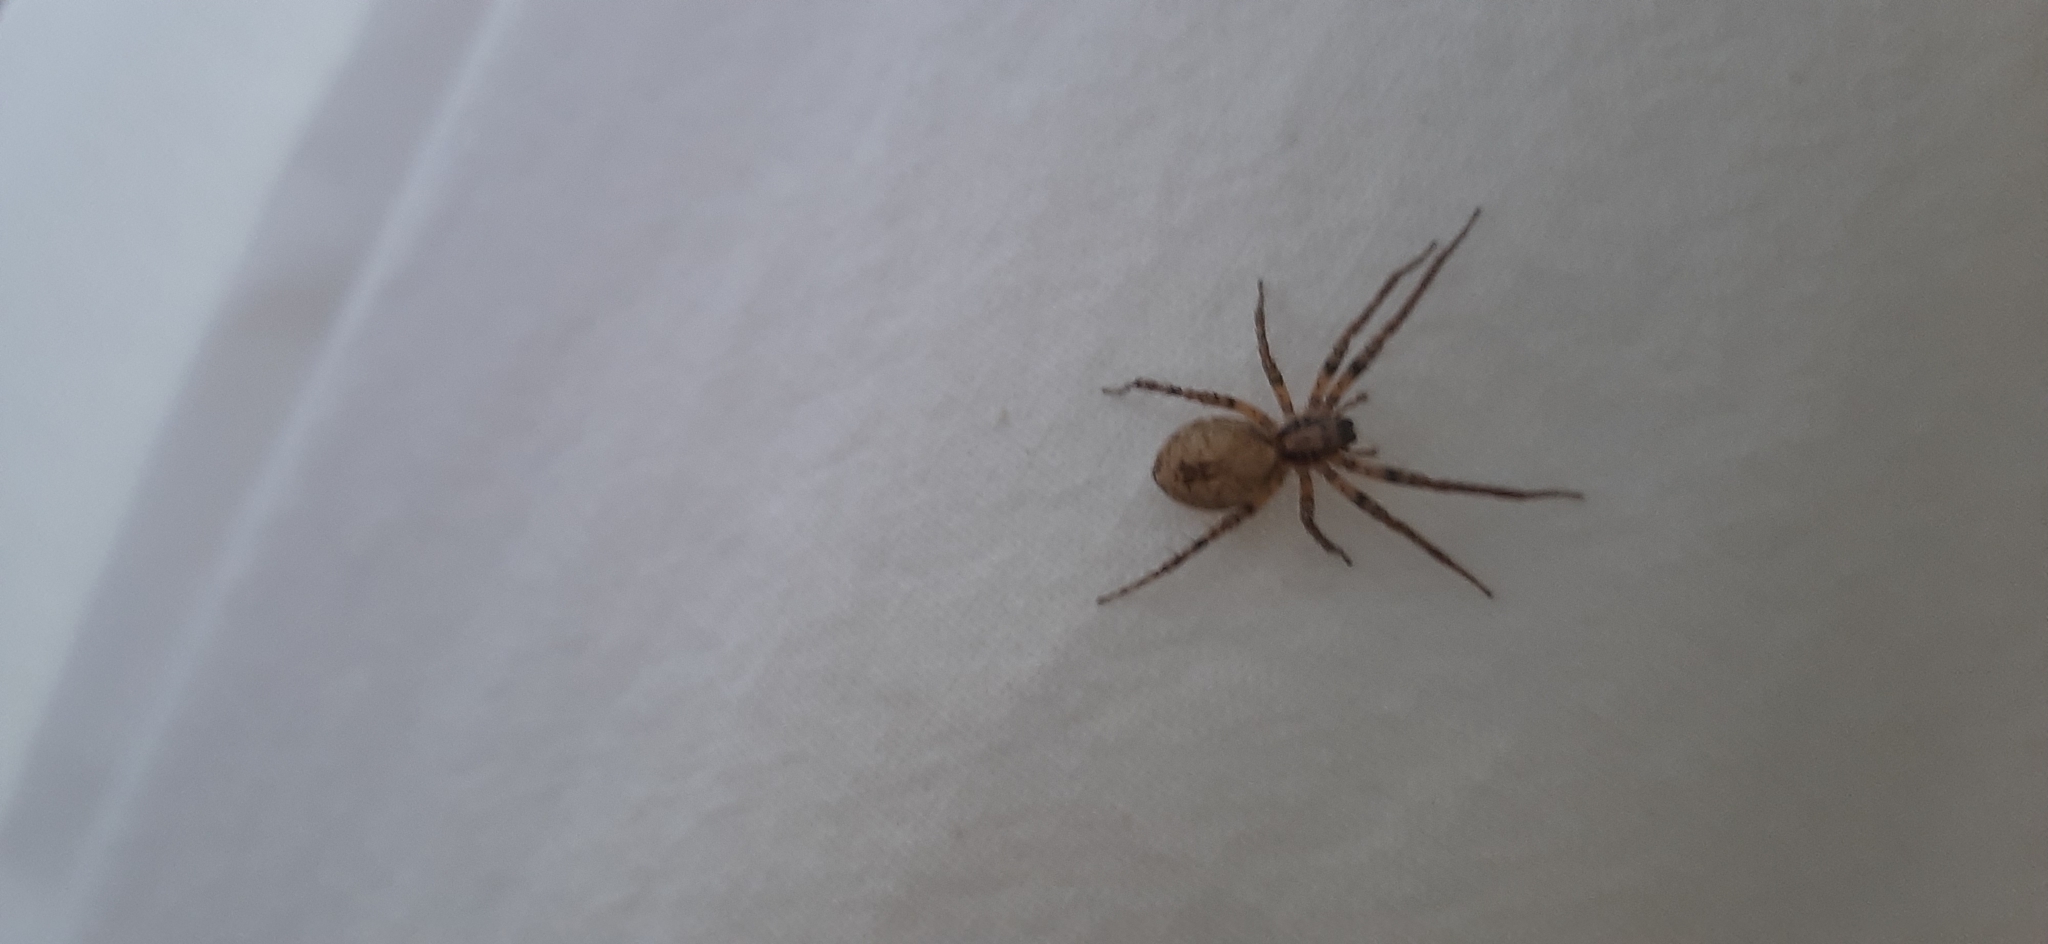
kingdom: Animalia
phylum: Arthropoda
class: Arachnida
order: Araneae
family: Anyphaenidae
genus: Anyphaena
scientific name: Anyphaena accentuata
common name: Buzzing spider
